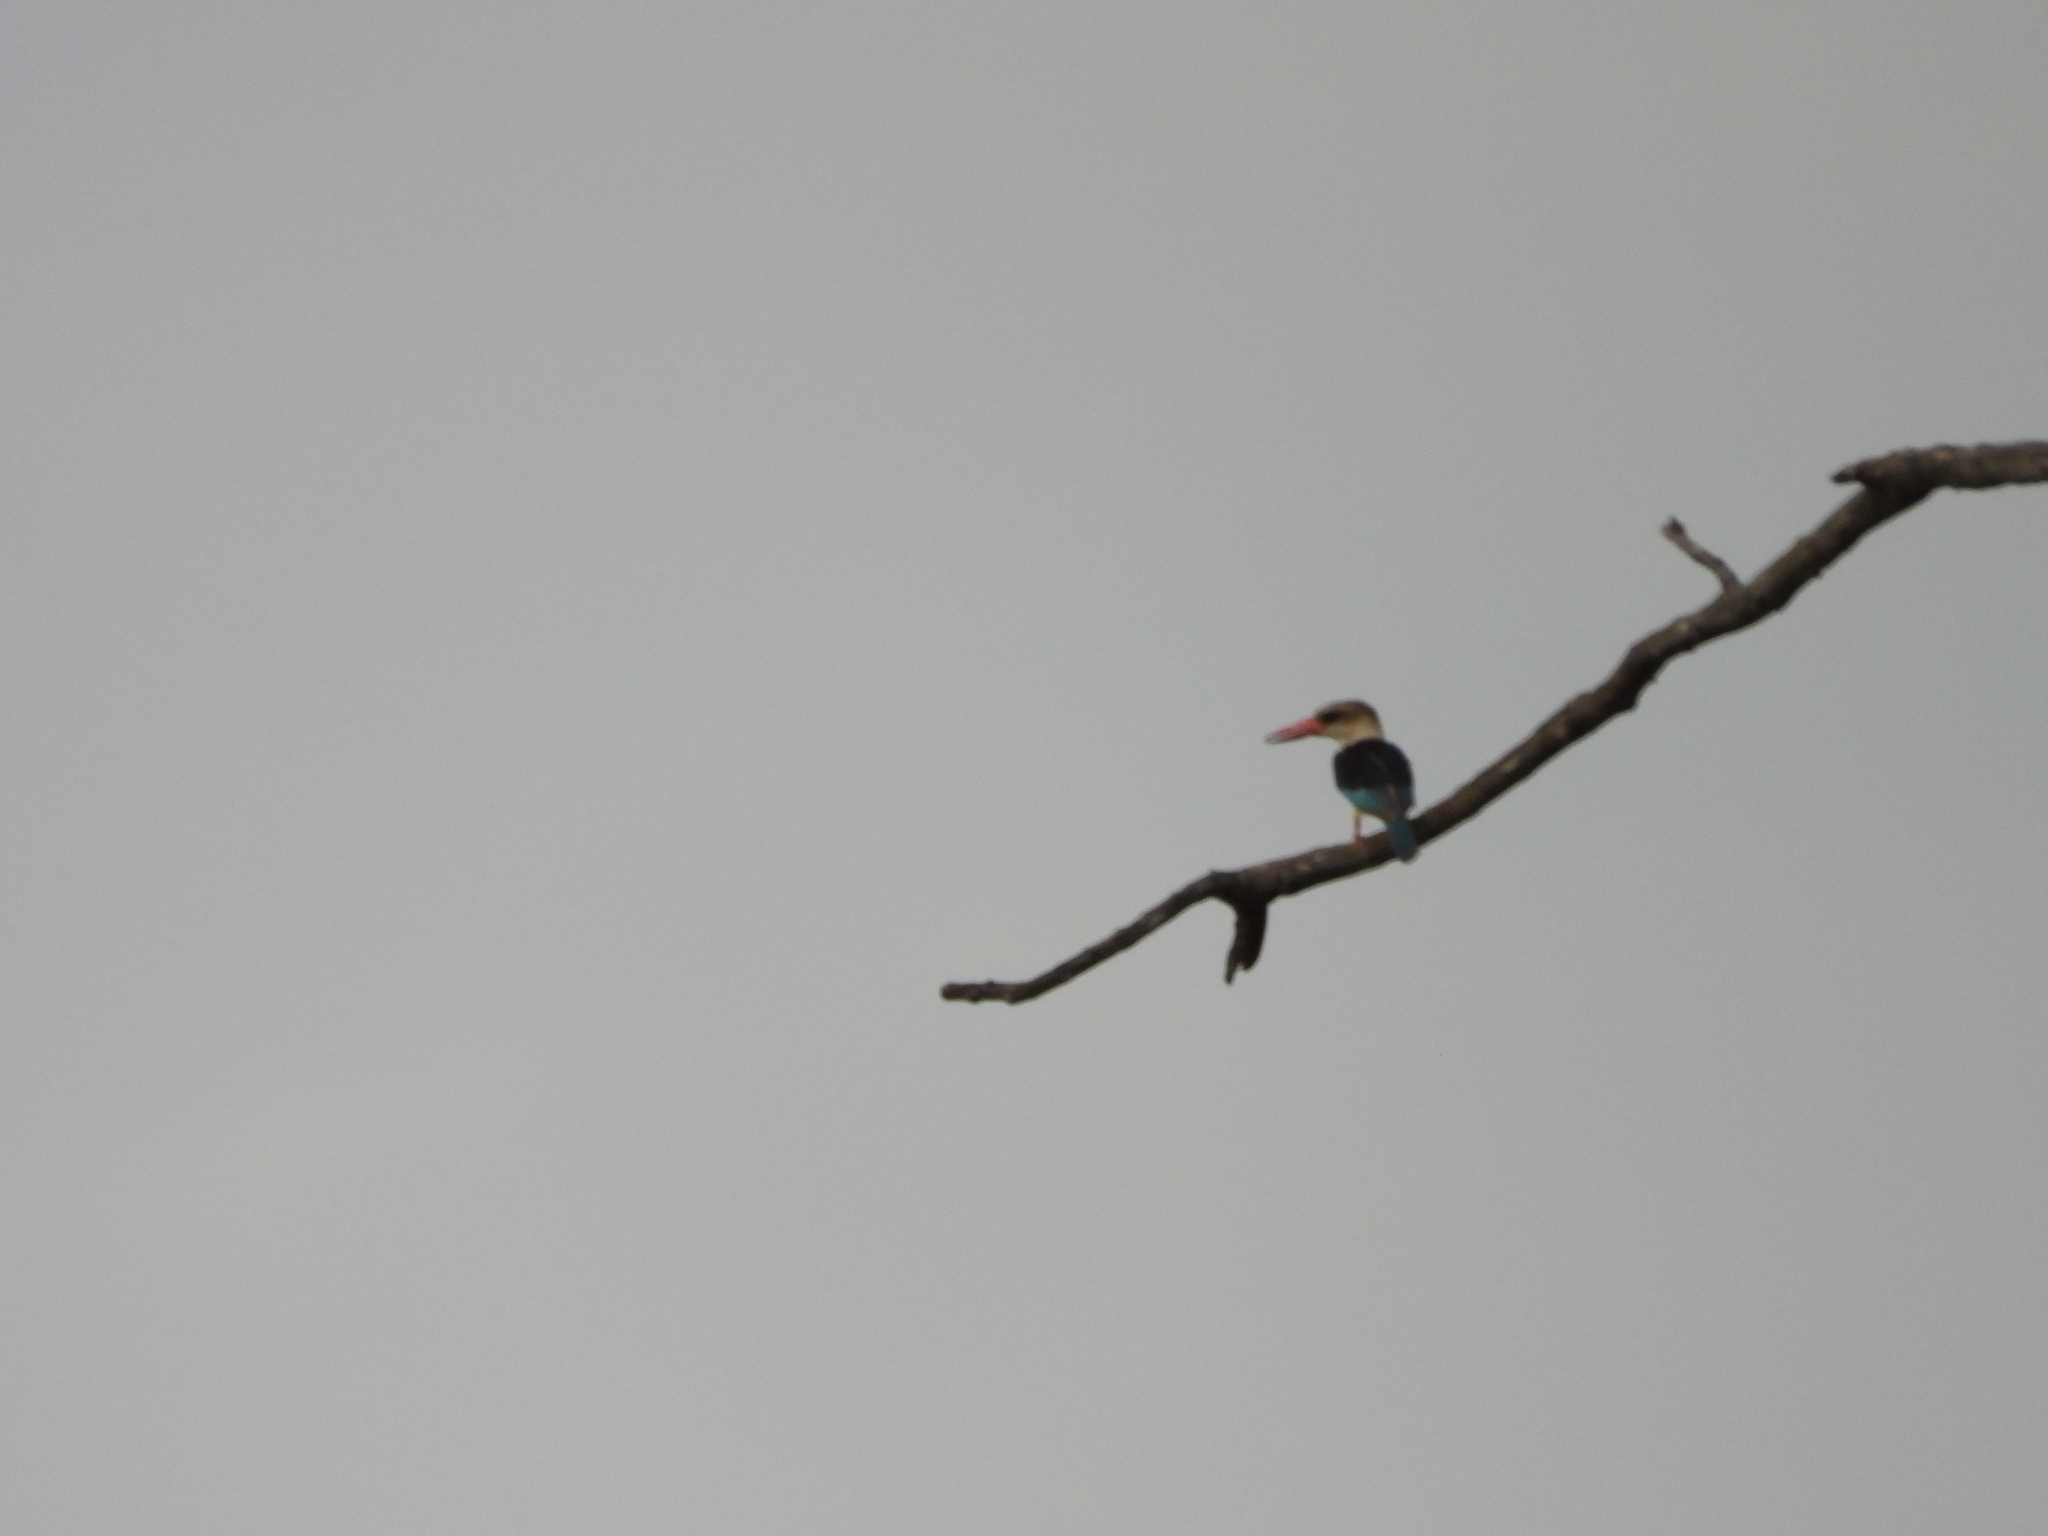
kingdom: Animalia
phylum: Chordata
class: Aves
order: Coraciiformes
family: Alcedinidae
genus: Halcyon
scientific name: Halcyon albiventris
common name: Brown-hooded kingfisher
